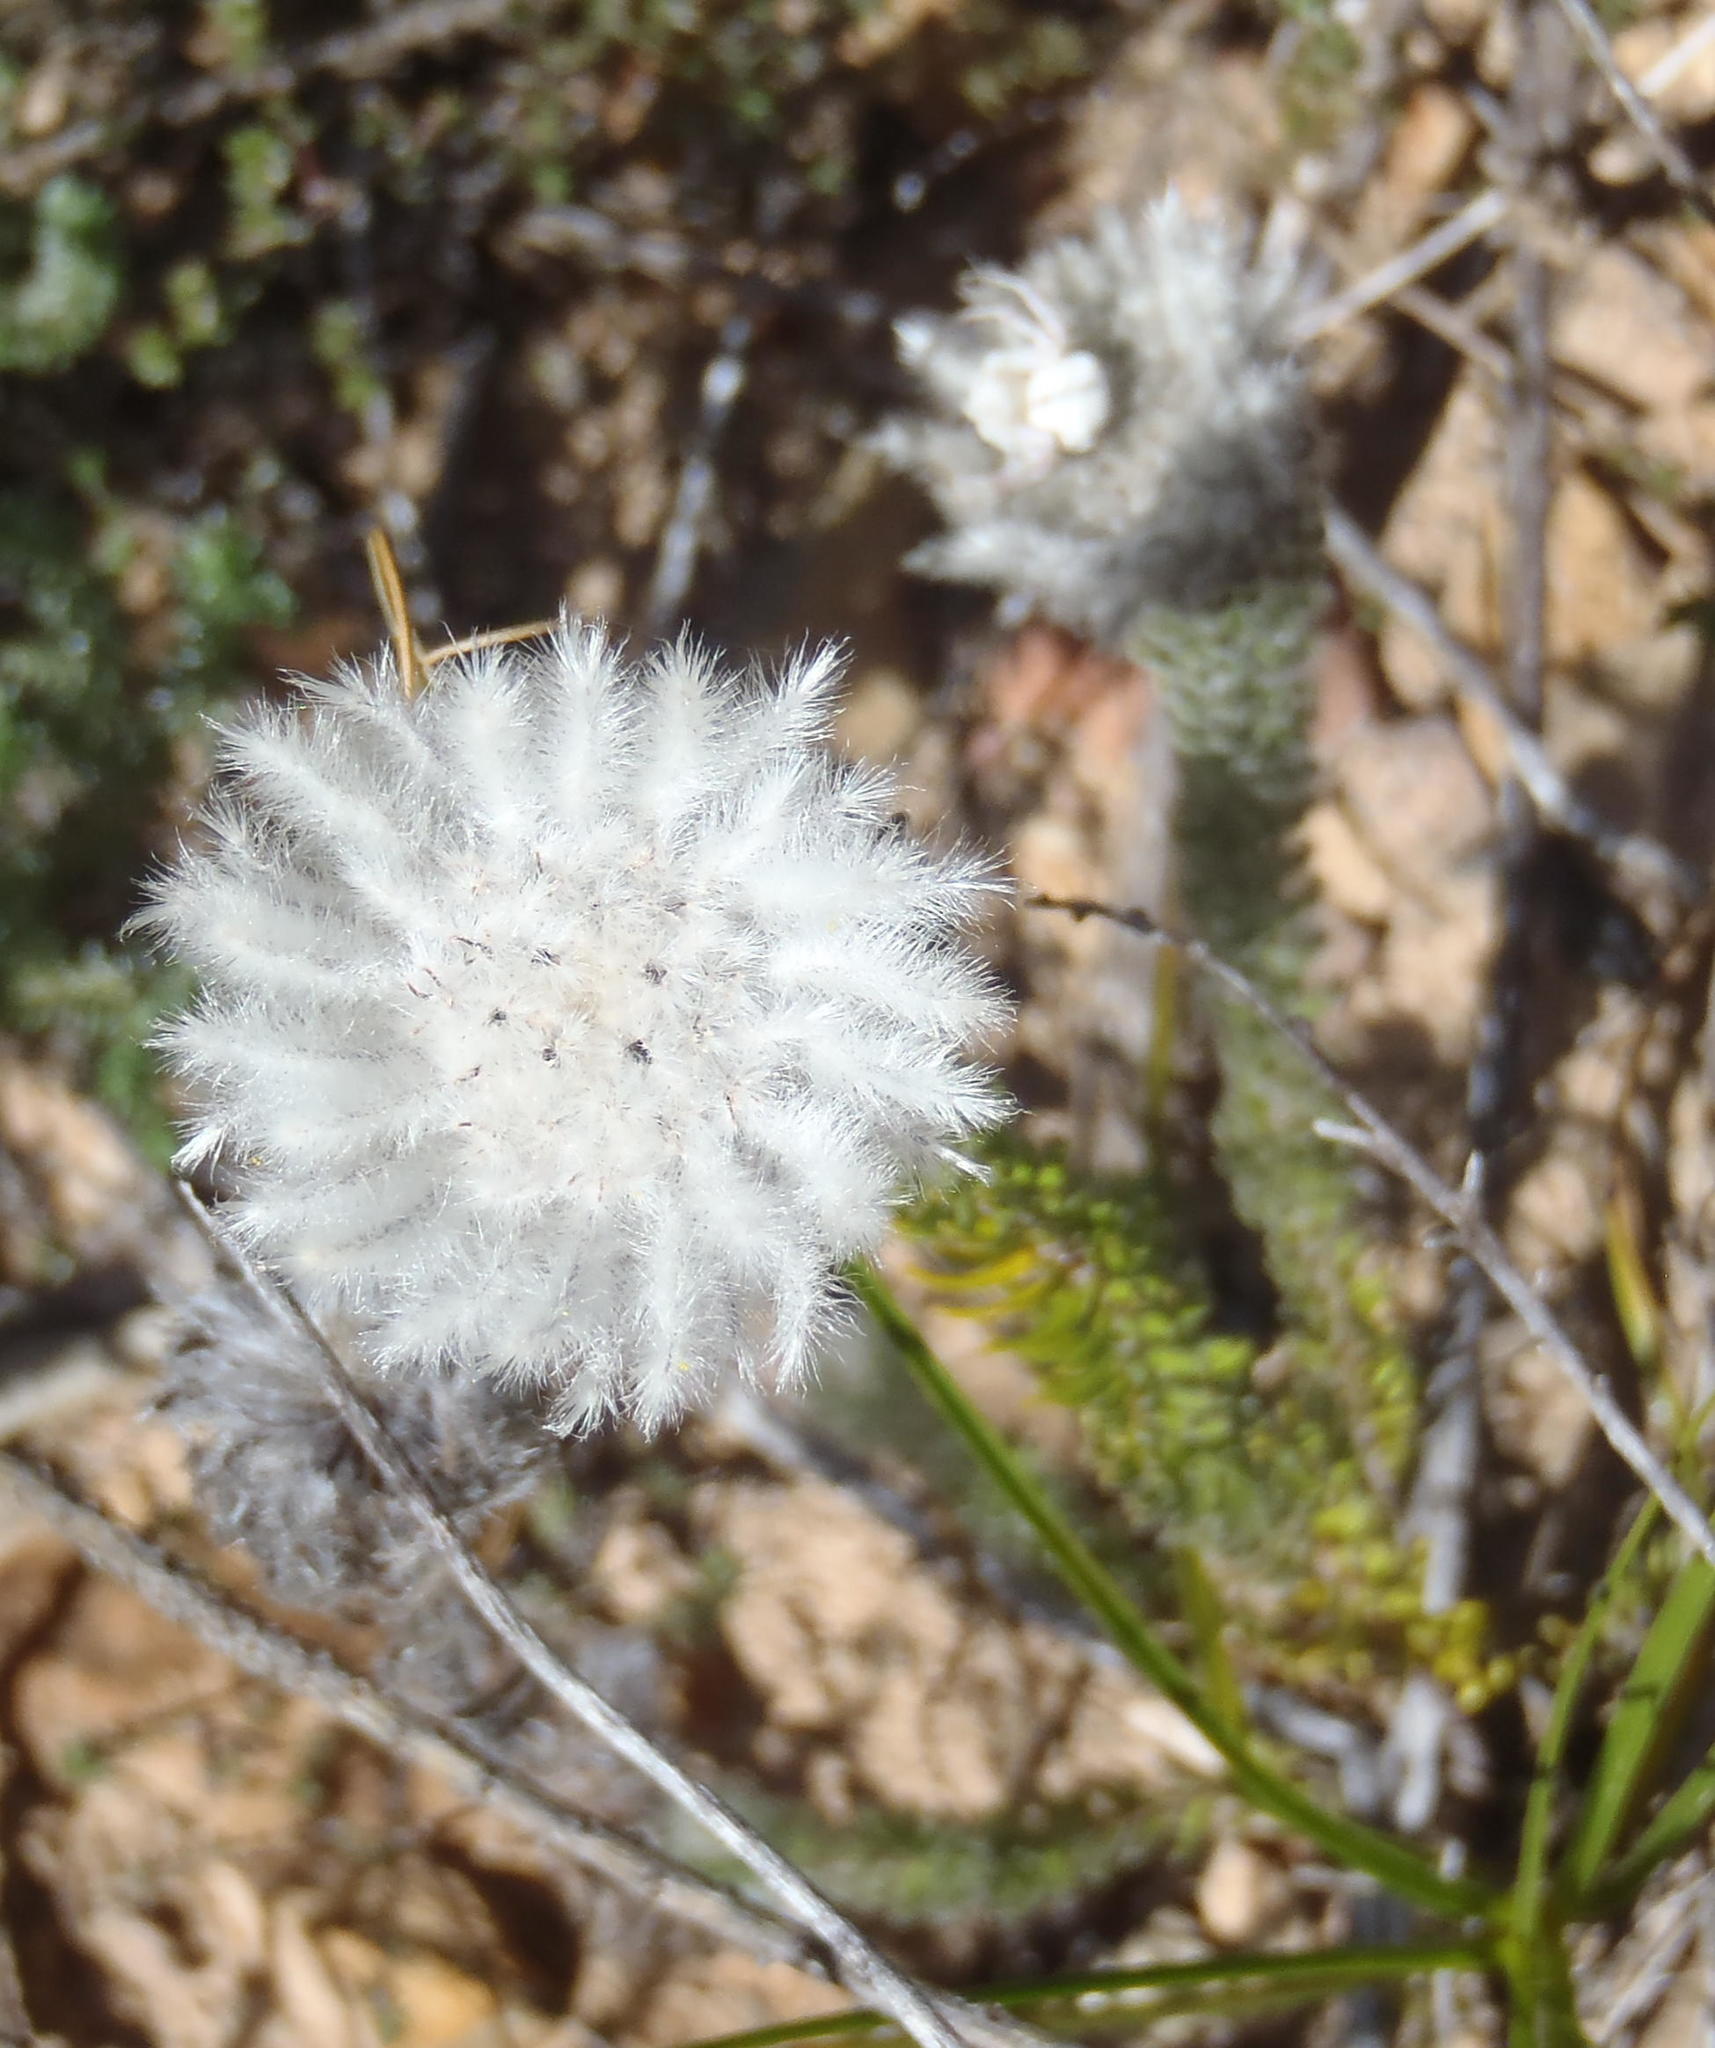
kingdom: Plantae
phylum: Tracheophyta
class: Magnoliopsida
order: Rosales
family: Rhamnaceae
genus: Phylica
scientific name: Phylica meyeri
